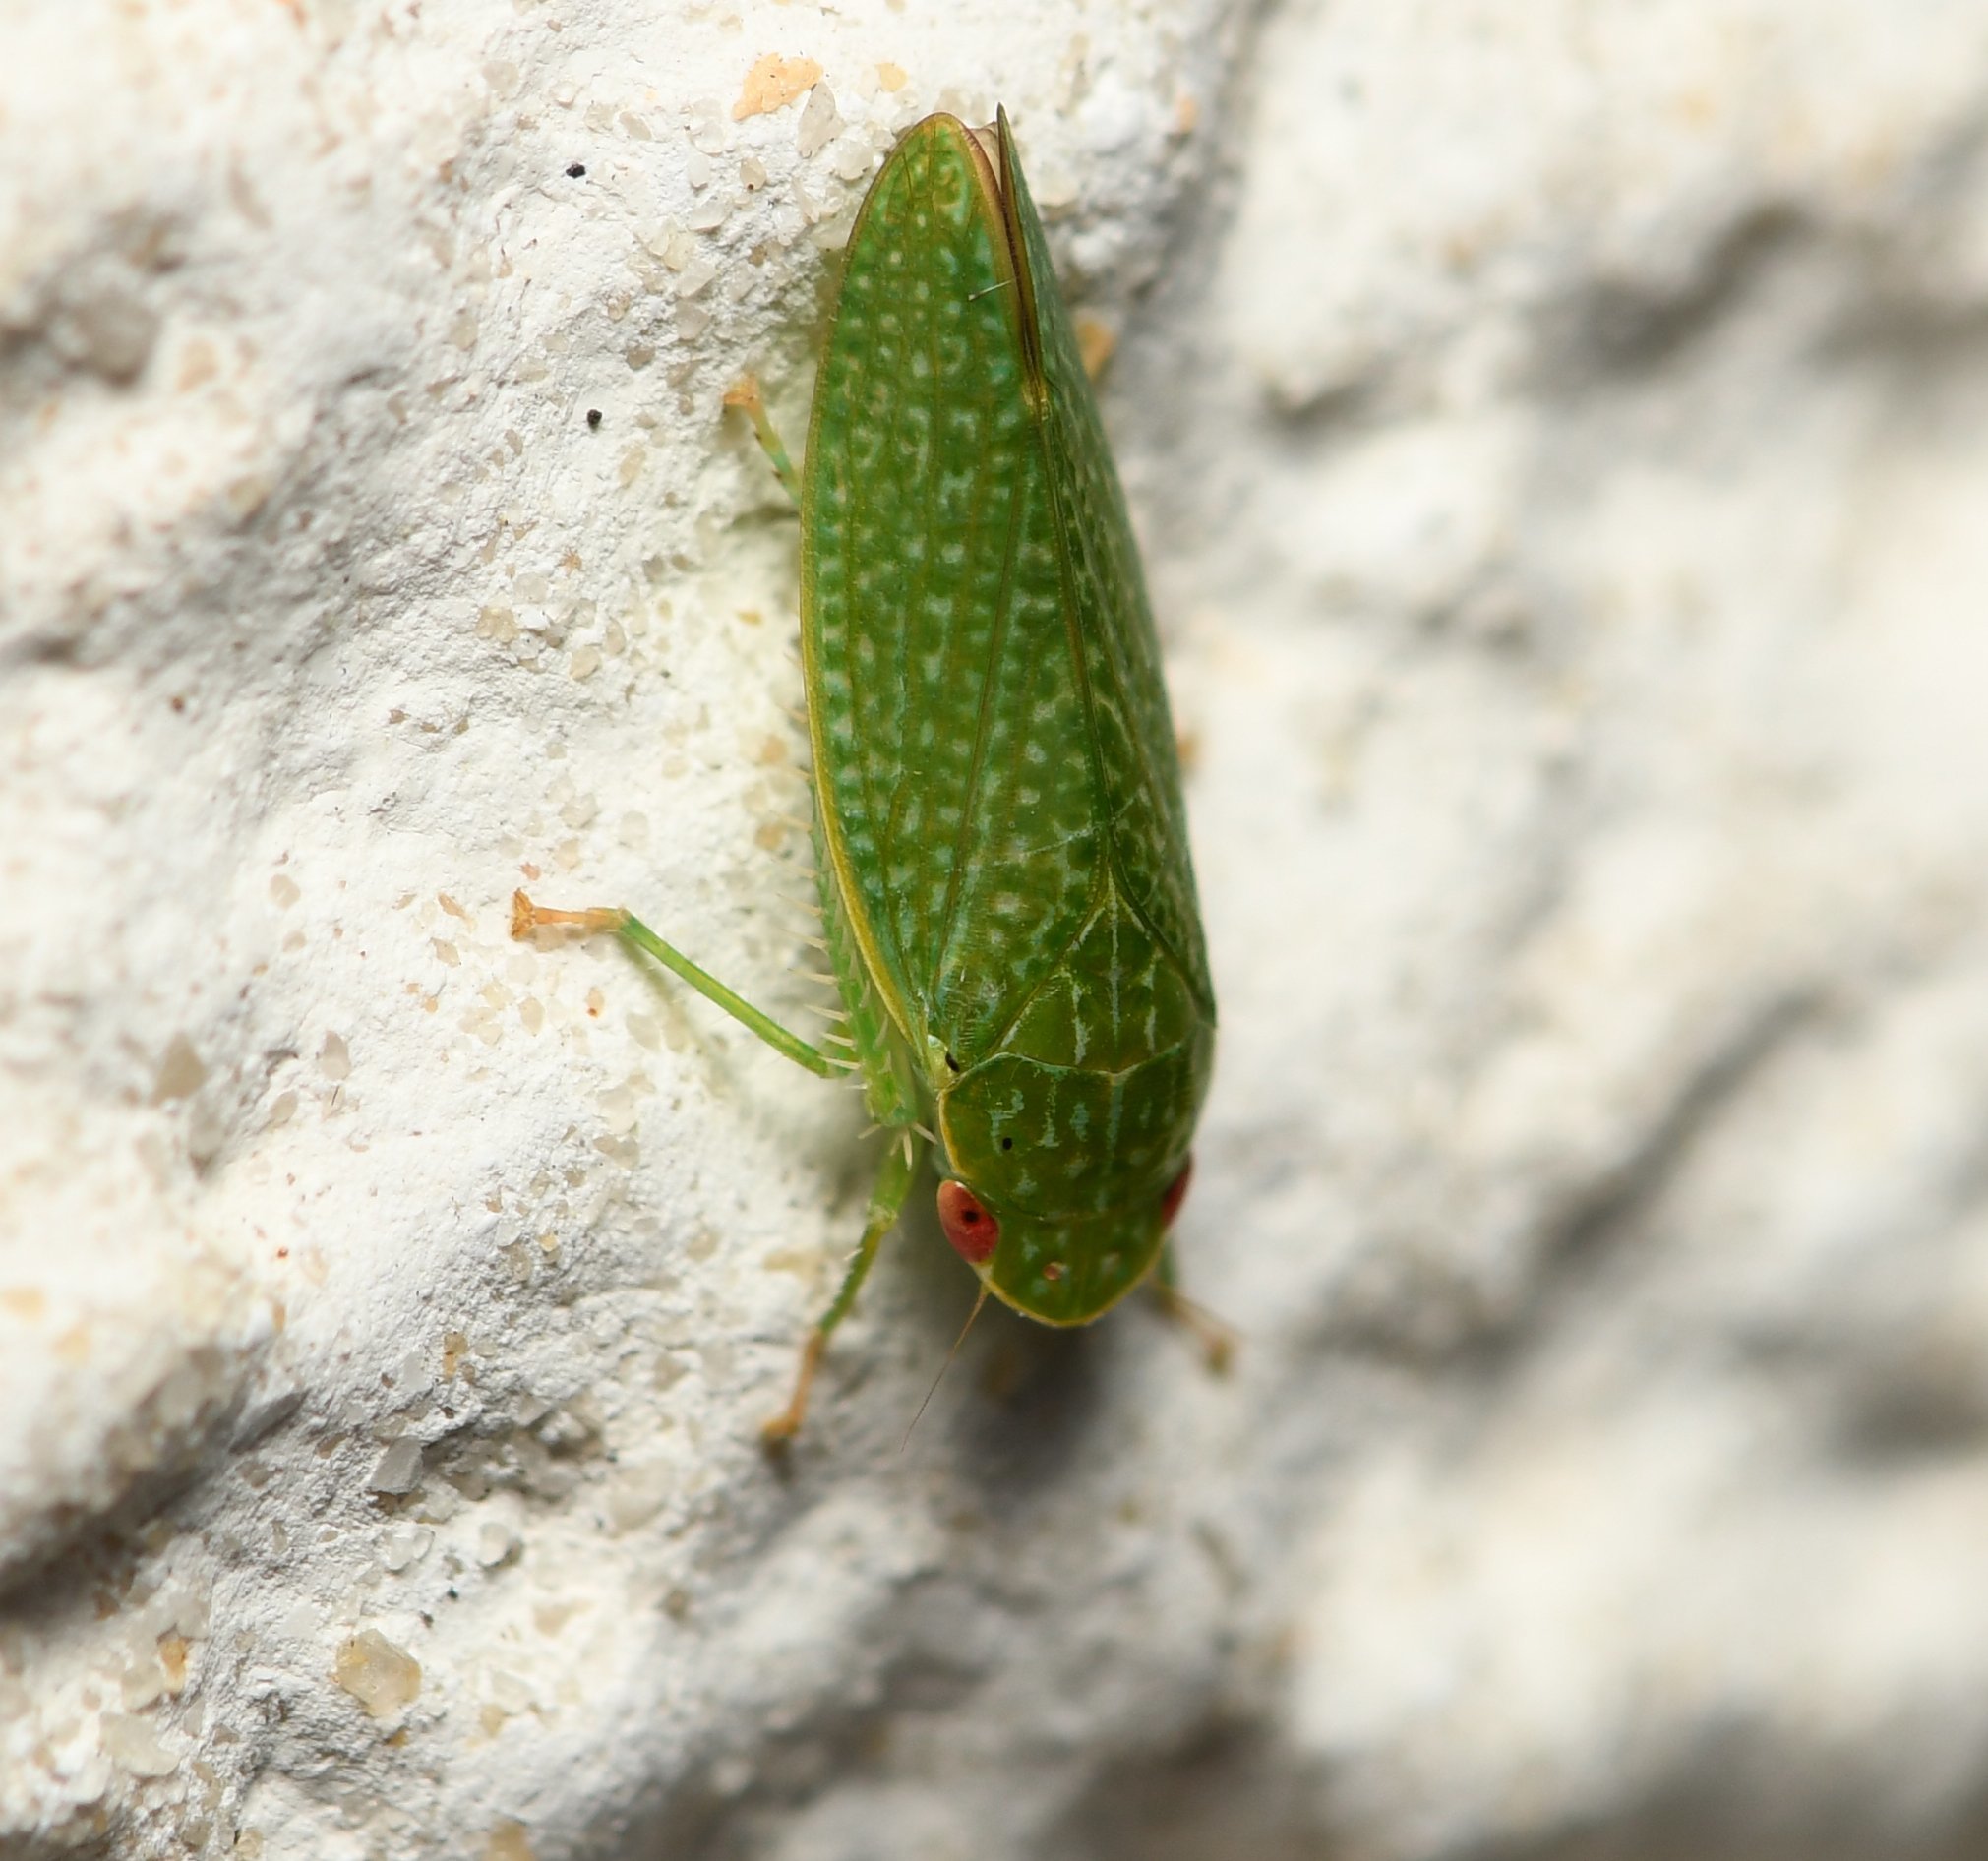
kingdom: Animalia
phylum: Arthropoda
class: Insecta
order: Hemiptera
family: Cicadellidae
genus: Rugosana
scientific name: Rugosana querci
